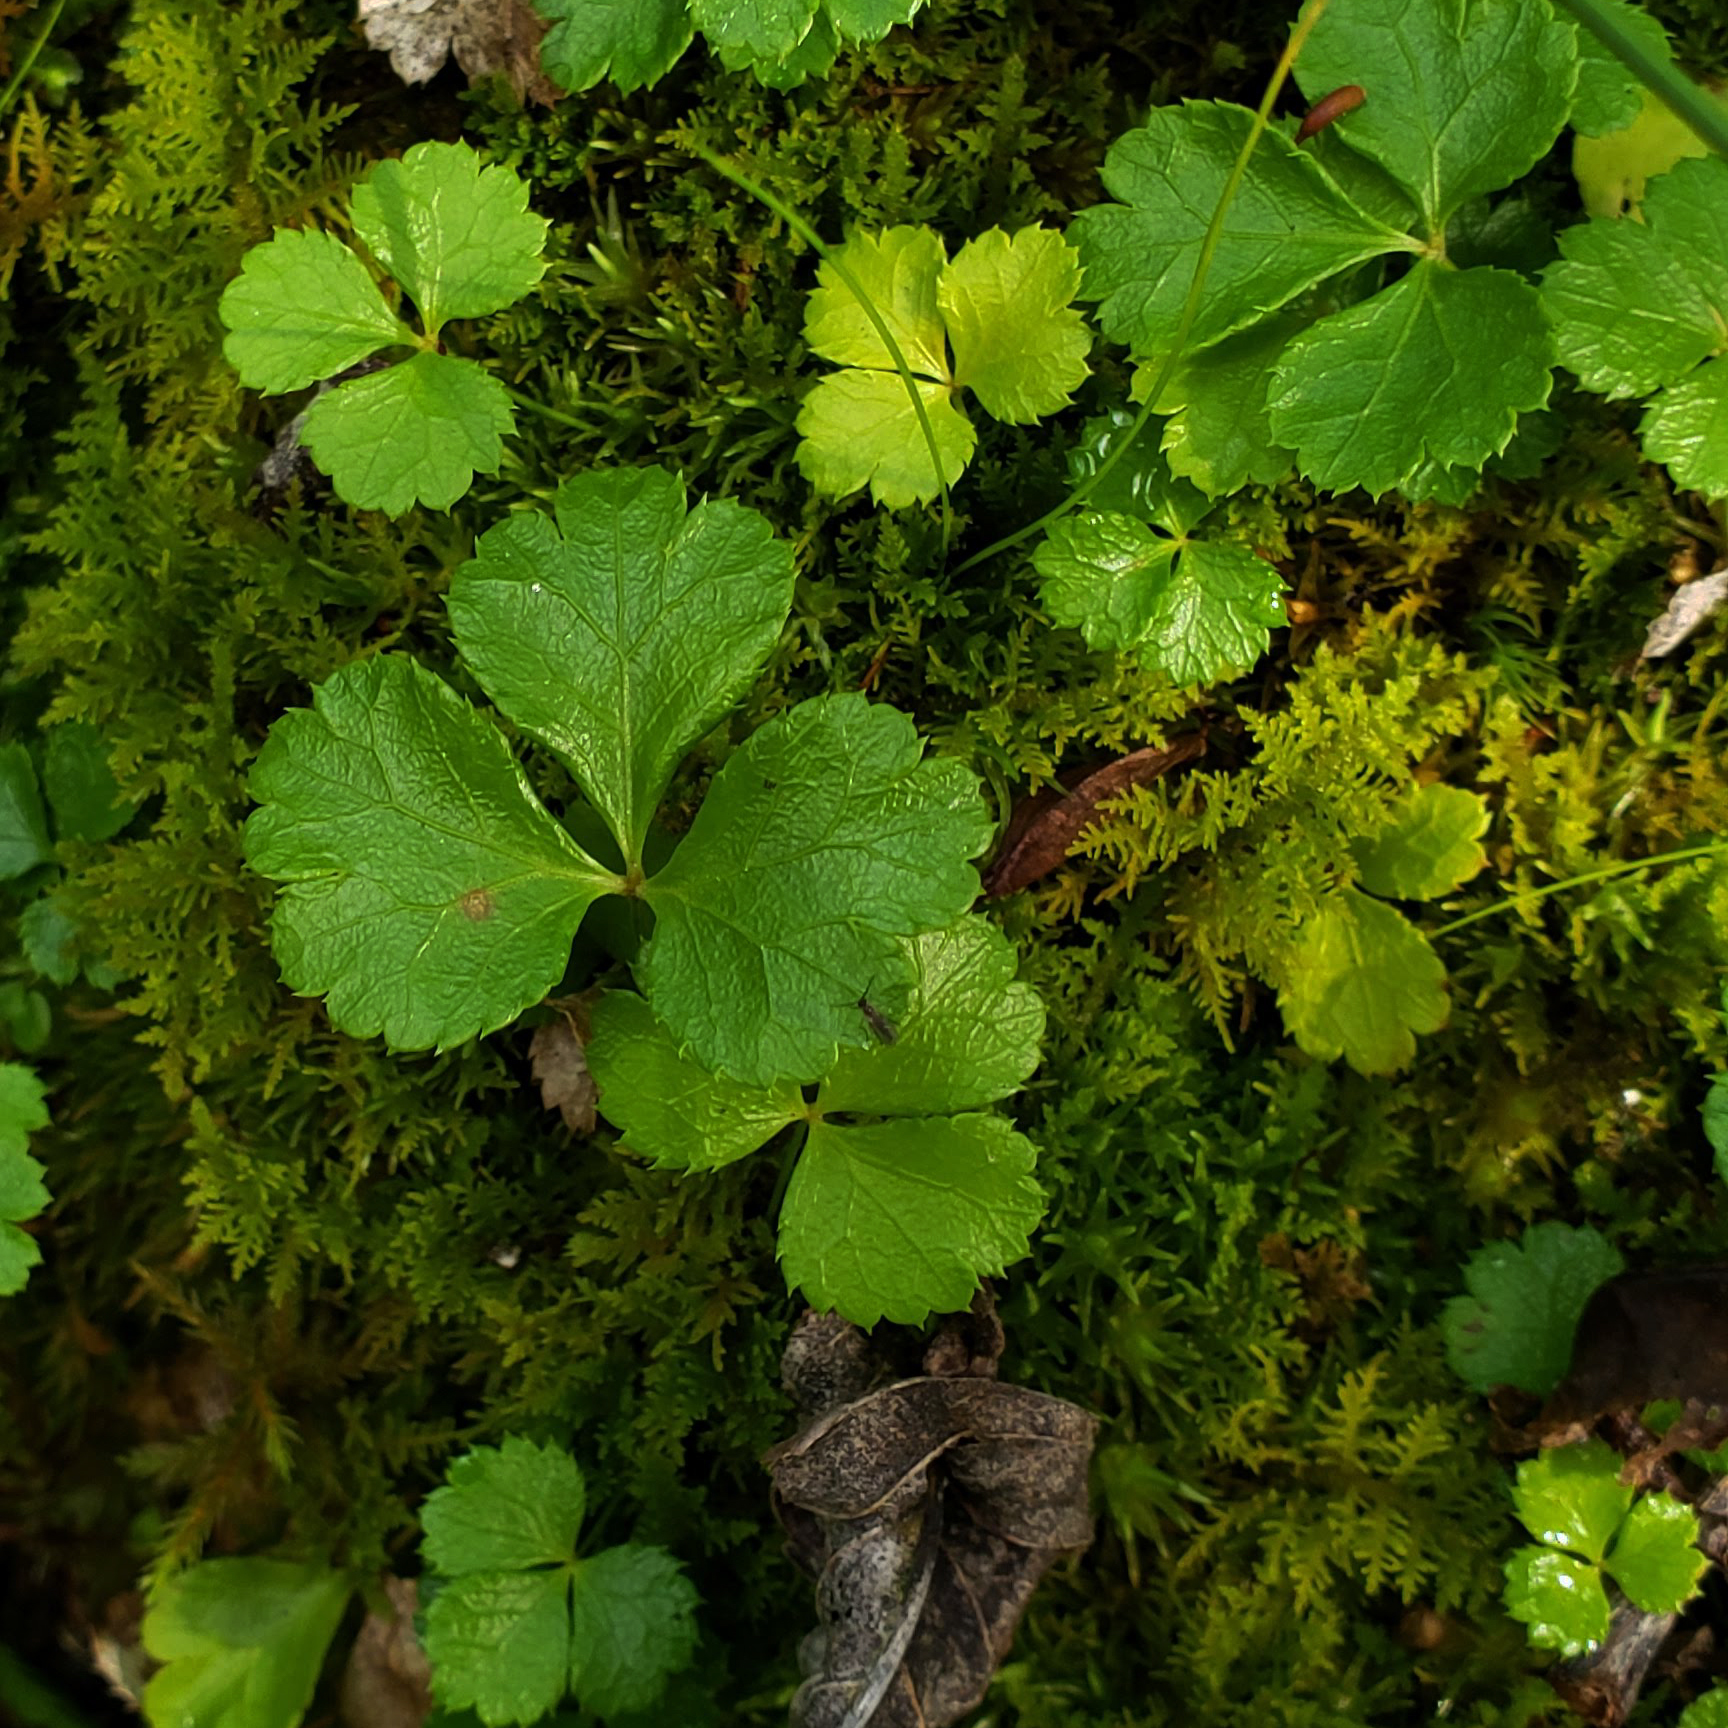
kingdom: Plantae
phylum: Tracheophyta
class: Magnoliopsida
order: Ranunculales
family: Ranunculaceae
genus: Coptis
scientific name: Coptis trifolia
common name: Canker-root
